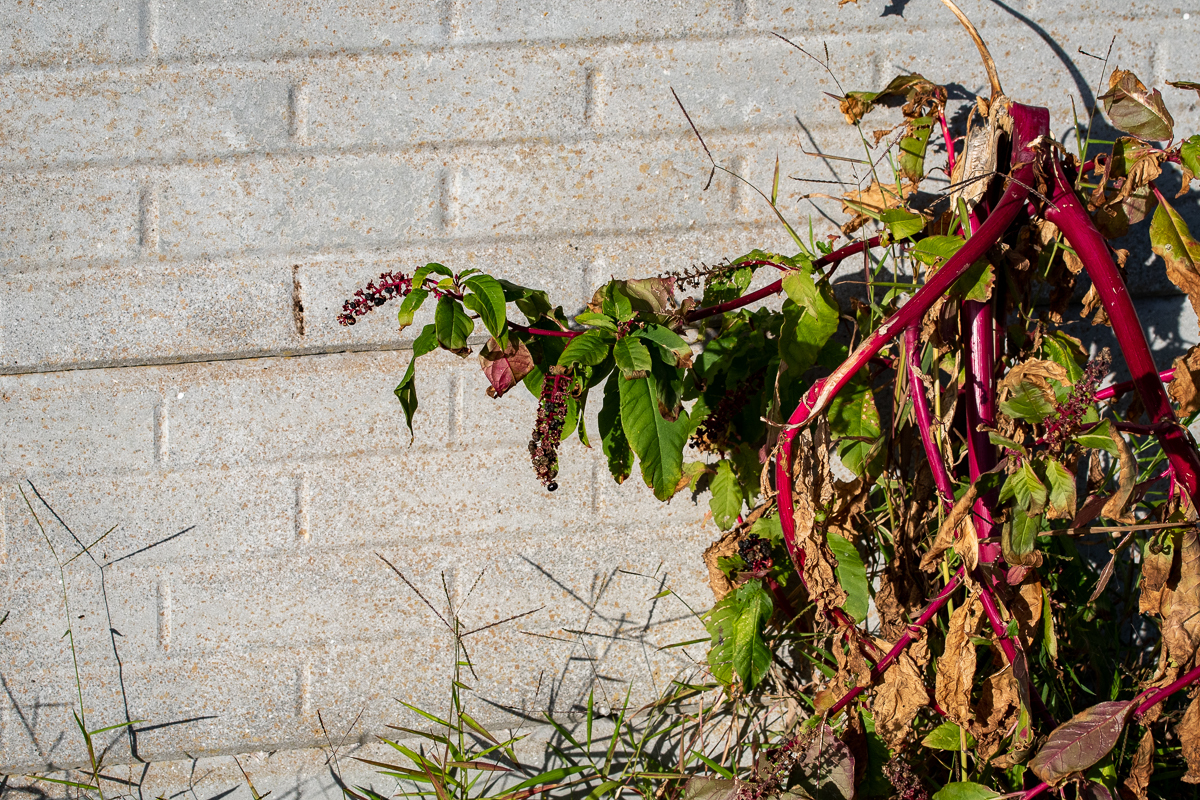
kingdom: Plantae
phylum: Tracheophyta
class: Magnoliopsida
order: Caryophyllales
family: Phytolaccaceae
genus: Phytolacca
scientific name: Phytolacca americana
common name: American pokeweed
